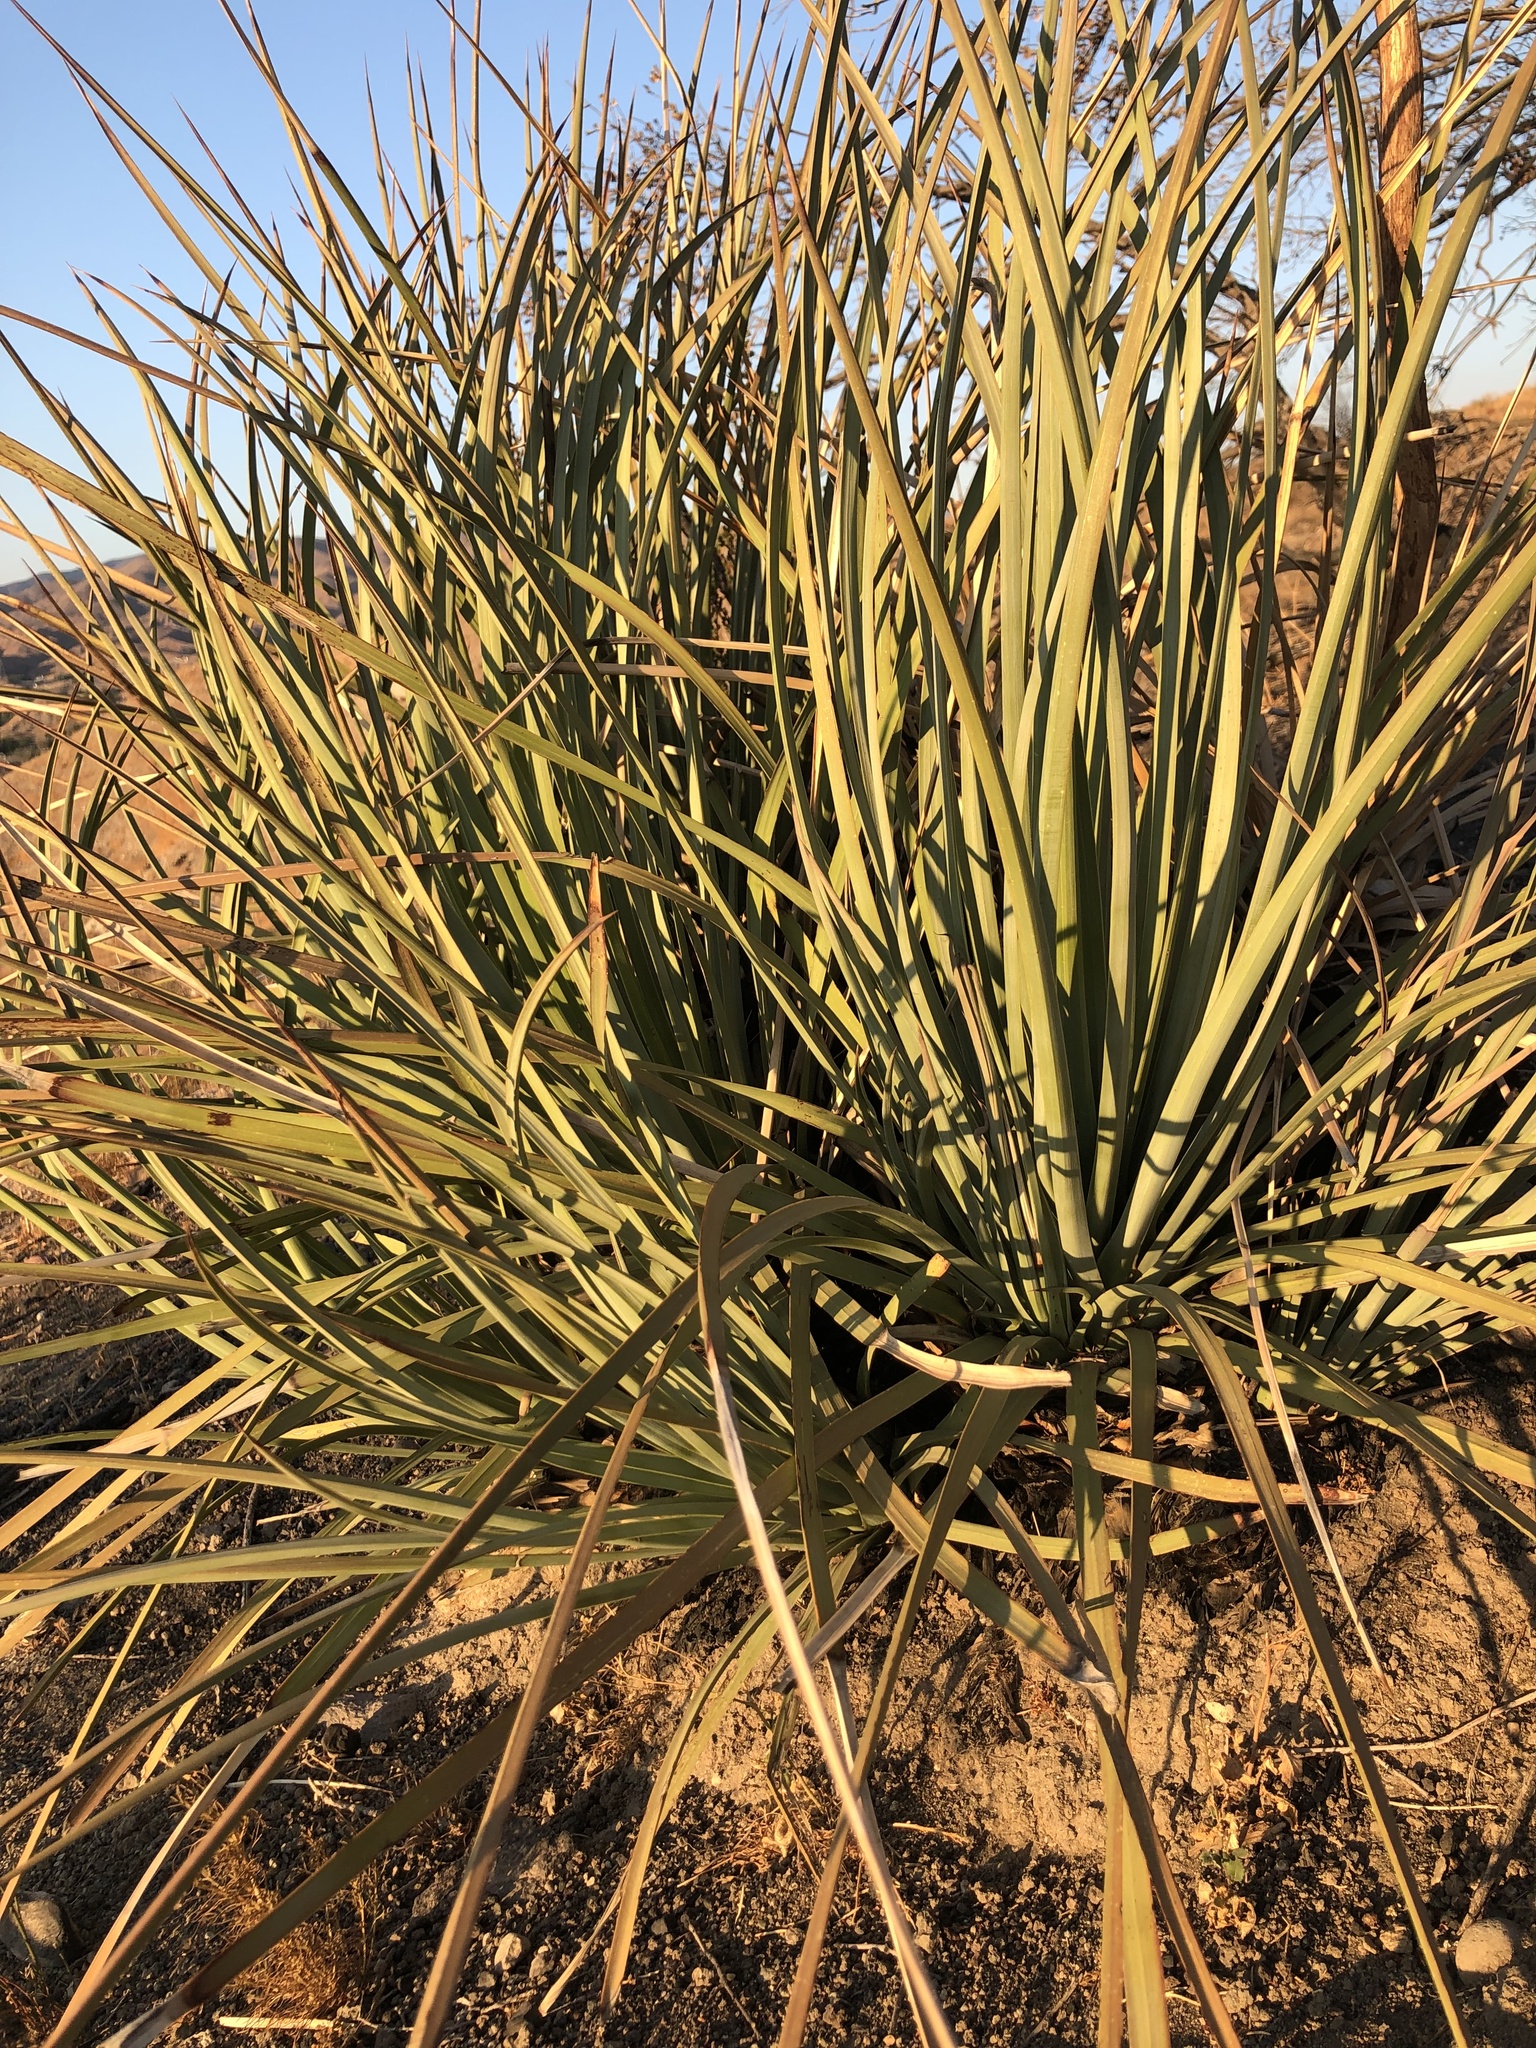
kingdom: Plantae
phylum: Tracheophyta
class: Liliopsida
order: Asparagales
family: Asparagaceae
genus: Hesperoyucca
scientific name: Hesperoyucca whipplei
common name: Our lord's-candle
